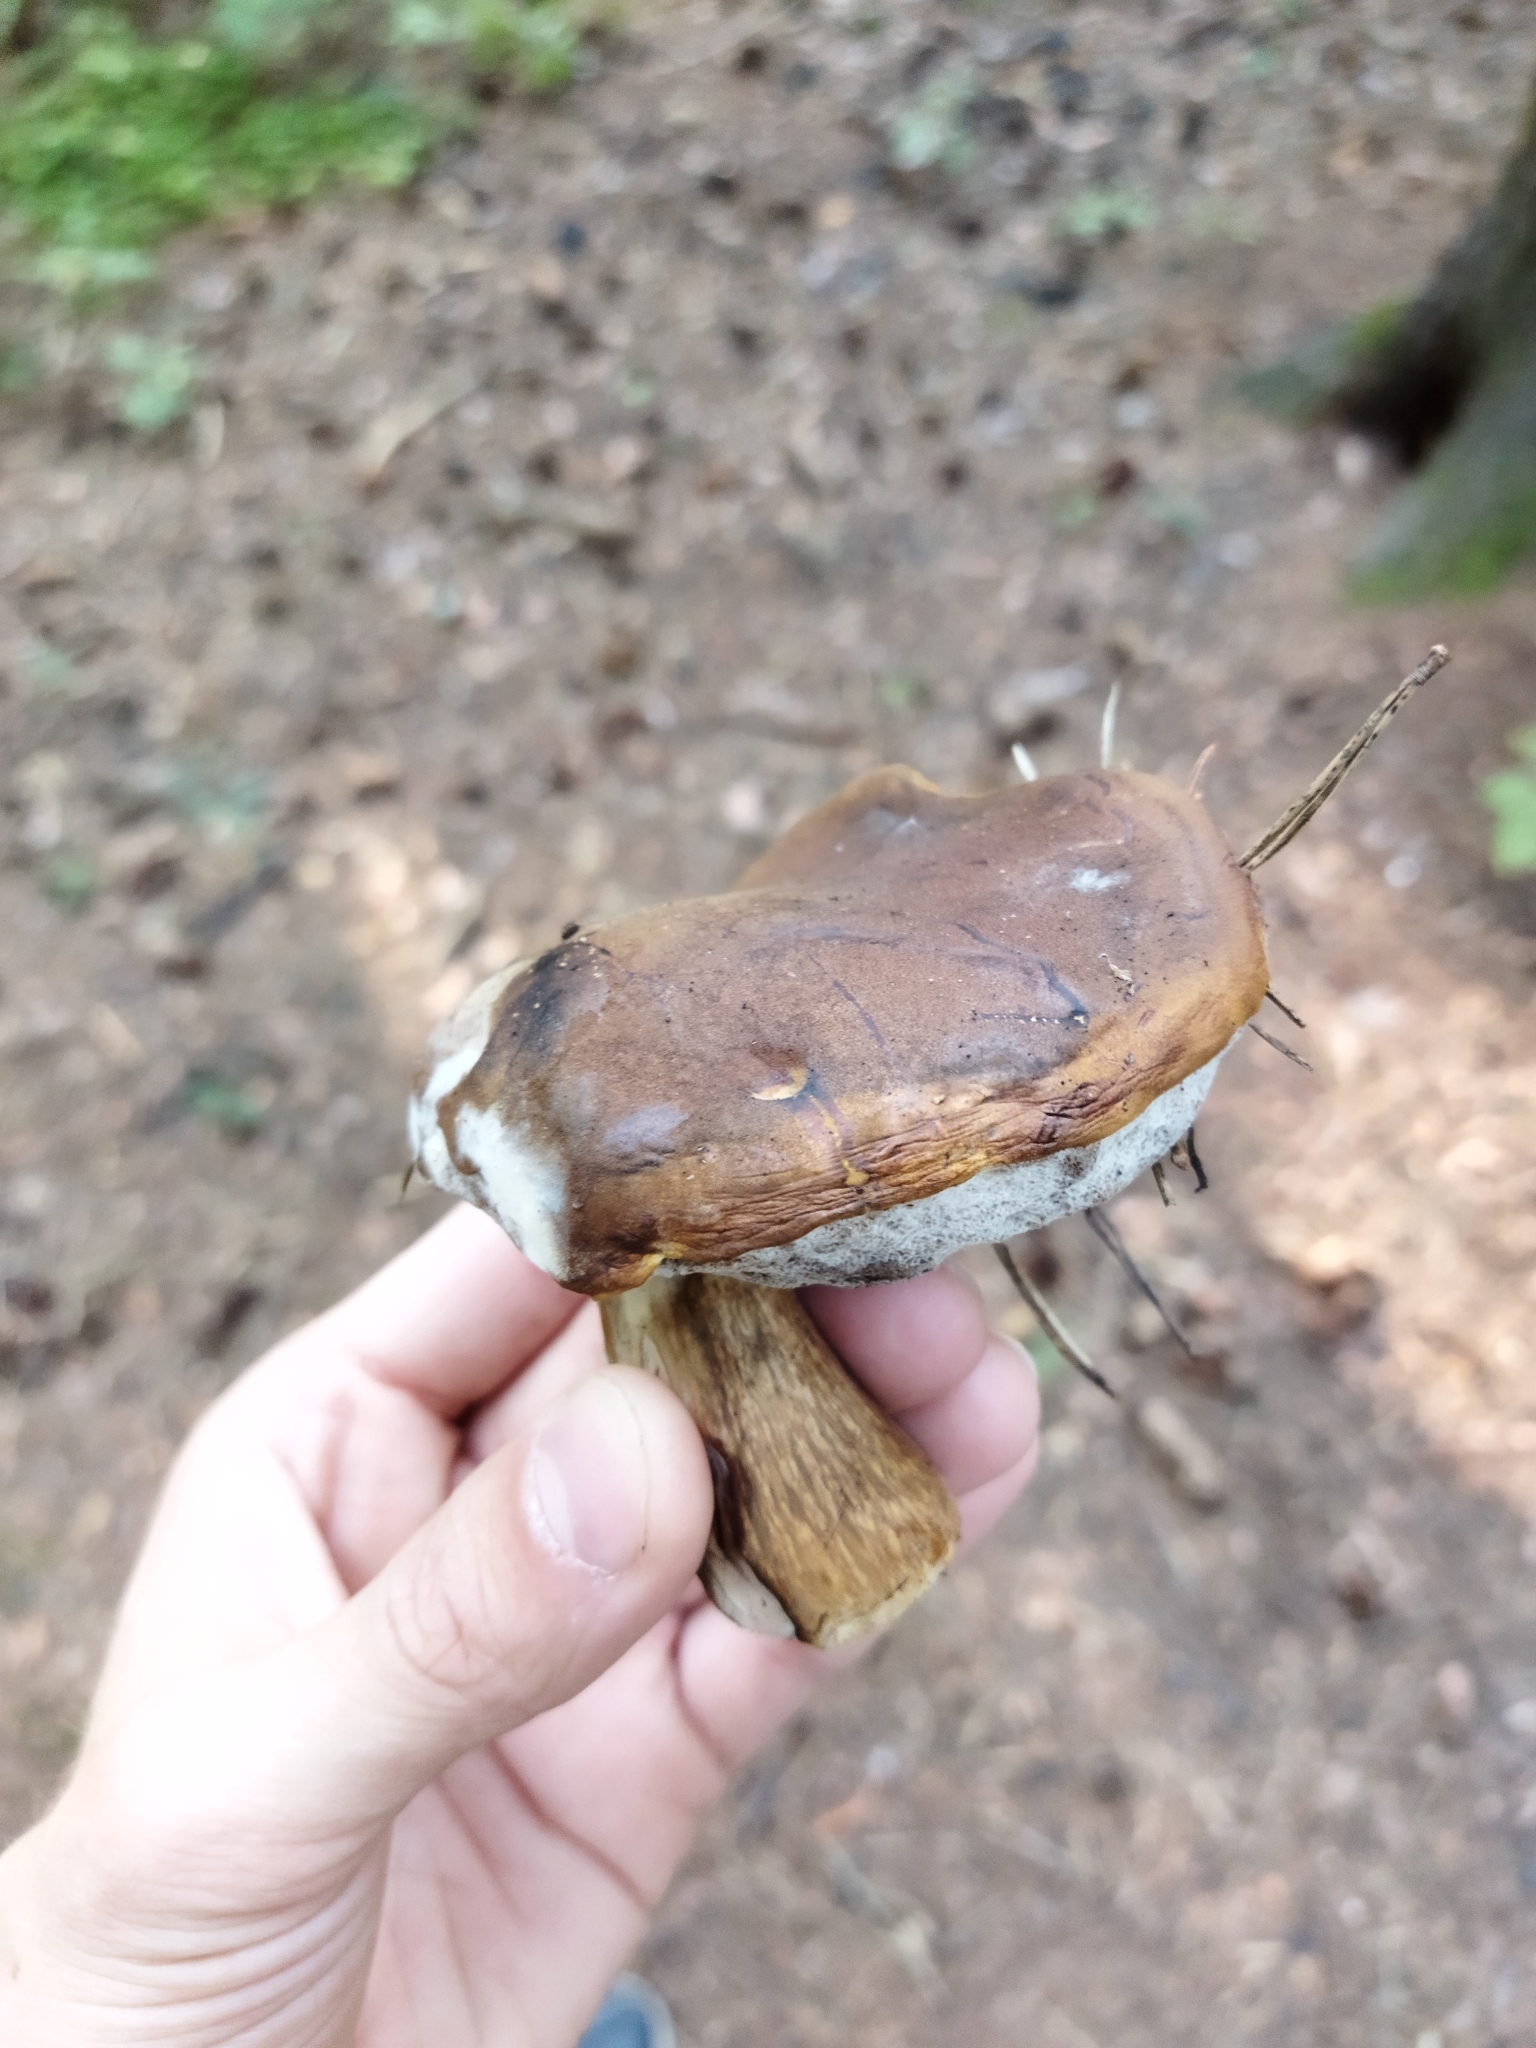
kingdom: Fungi
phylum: Basidiomycota
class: Agaricomycetes
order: Boletales
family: Boletaceae
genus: Tylopilus
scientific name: Tylopilus felleus
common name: Bitter bolete
